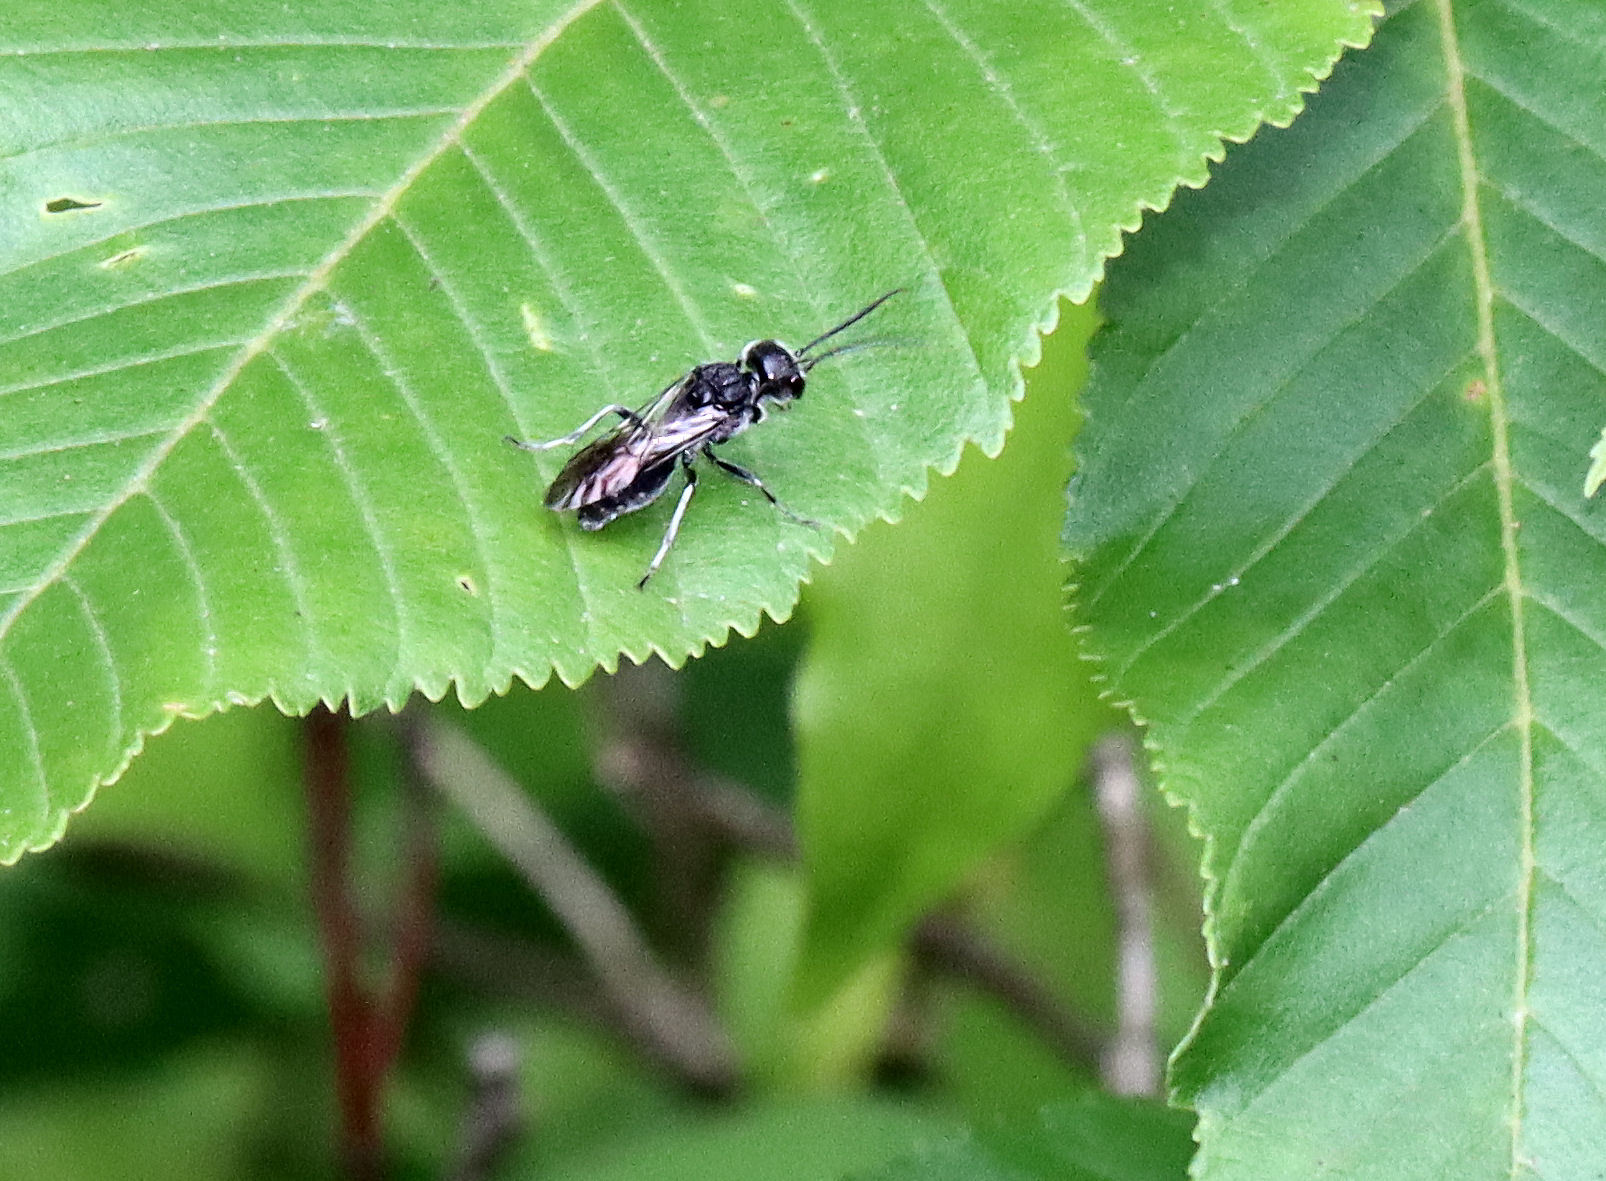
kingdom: Animalia
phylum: Arthropoda
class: Insecta
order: Hymenoptera
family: Trigonalidae
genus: Lycogaster
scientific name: Lycogaster
